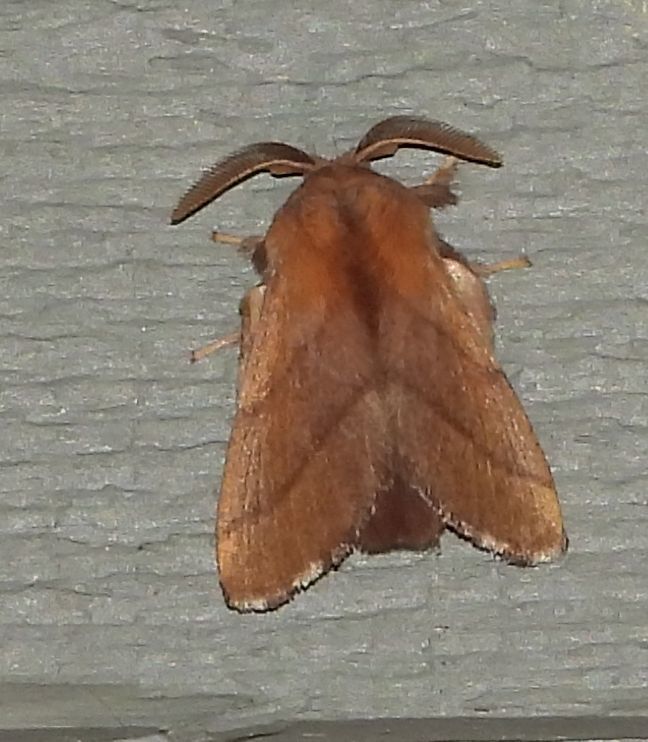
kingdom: Animalia
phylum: Arthropoda
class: Insecta
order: Lepidoptera
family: Lasiocampidae
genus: Malacosoma
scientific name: Malacosoma disstria
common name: Forest tent caterpillar
